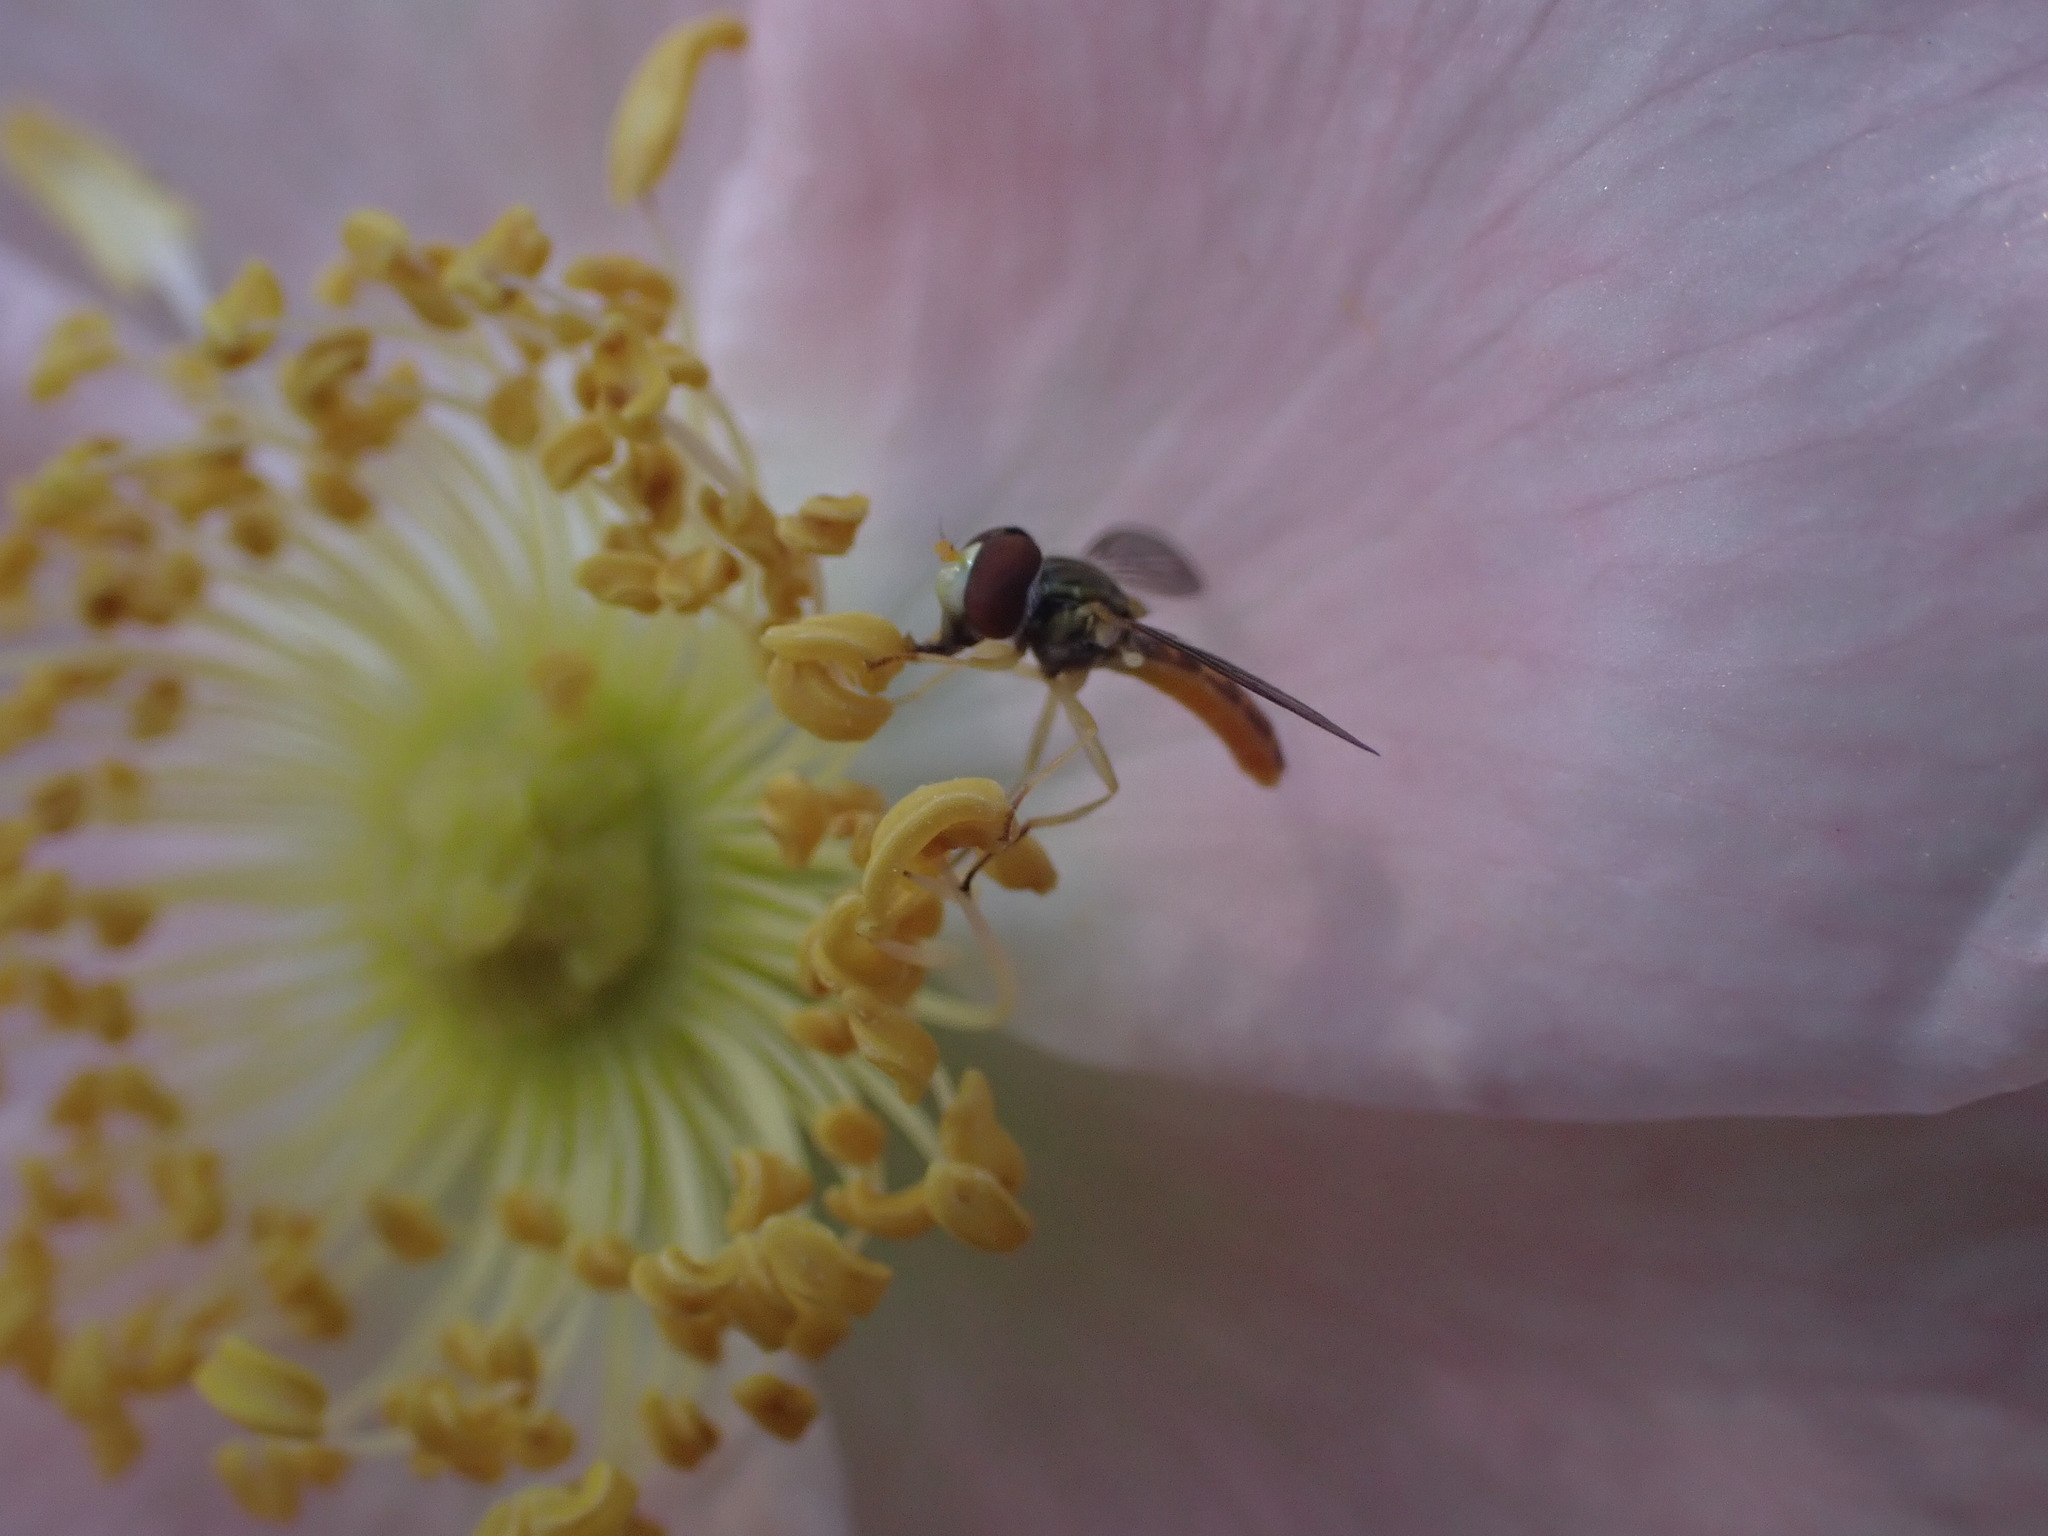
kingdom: Animalia
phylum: Arthropoda
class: Insecta
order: Diptera
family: Syrphidae
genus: Toxomerus
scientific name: Toxomerus marginatus
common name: Syrphid fly
